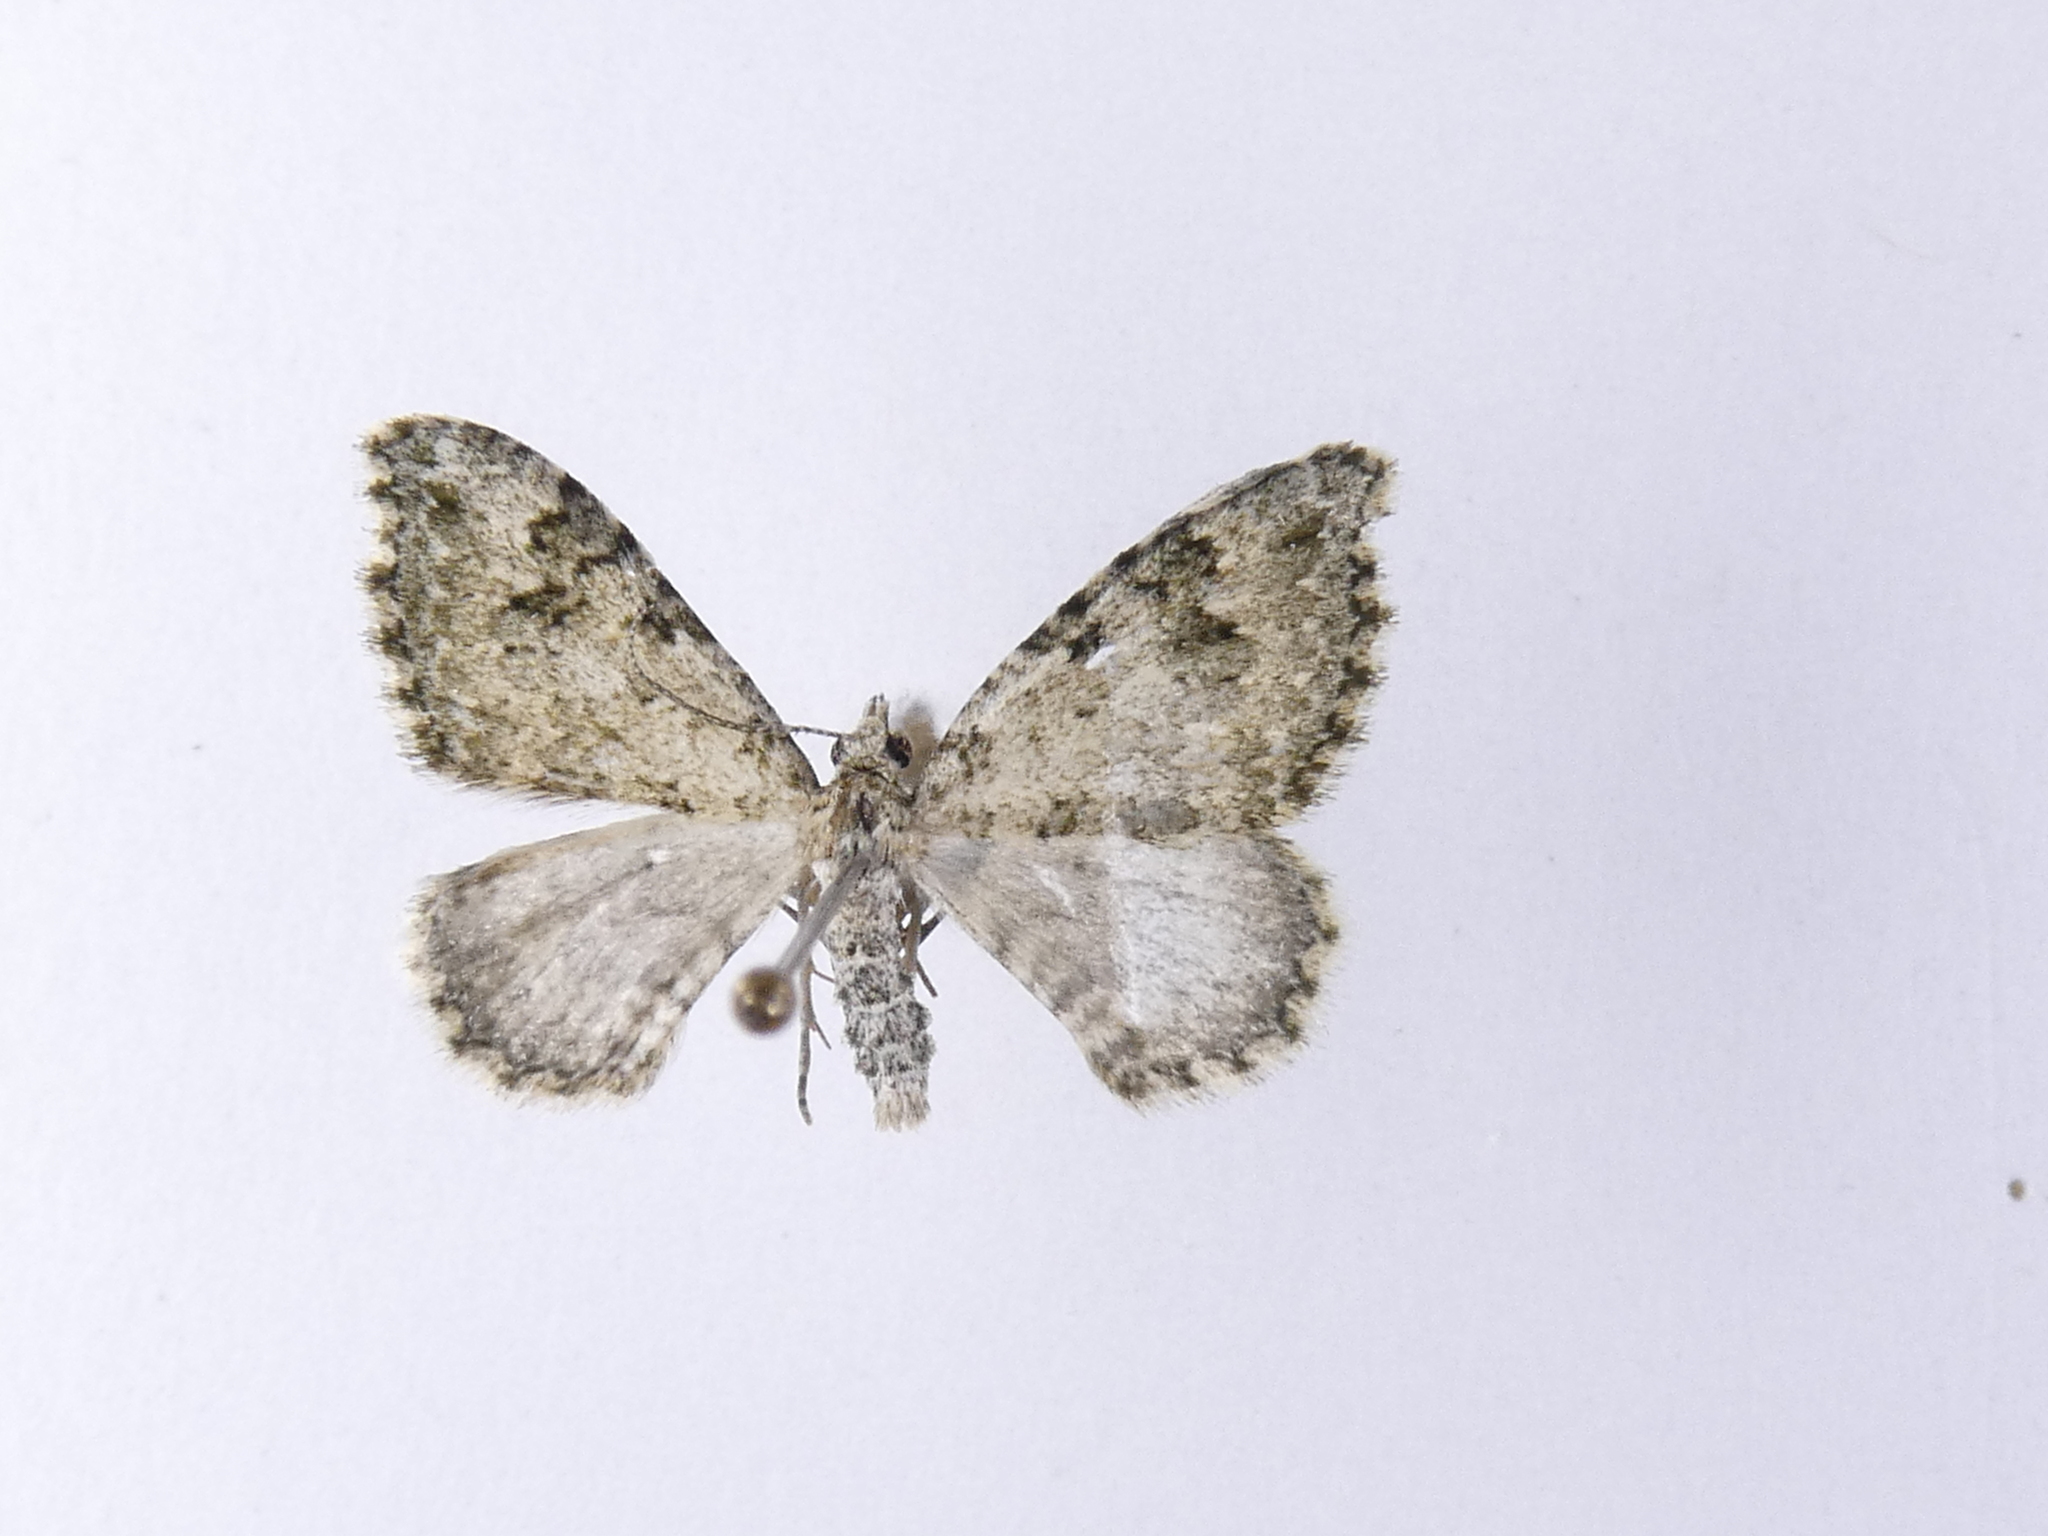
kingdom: Animalia
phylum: Arthropoda
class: Insecta
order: Lepidoptera
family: Geometridae
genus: Helastia
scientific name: Helastia cinerearia
